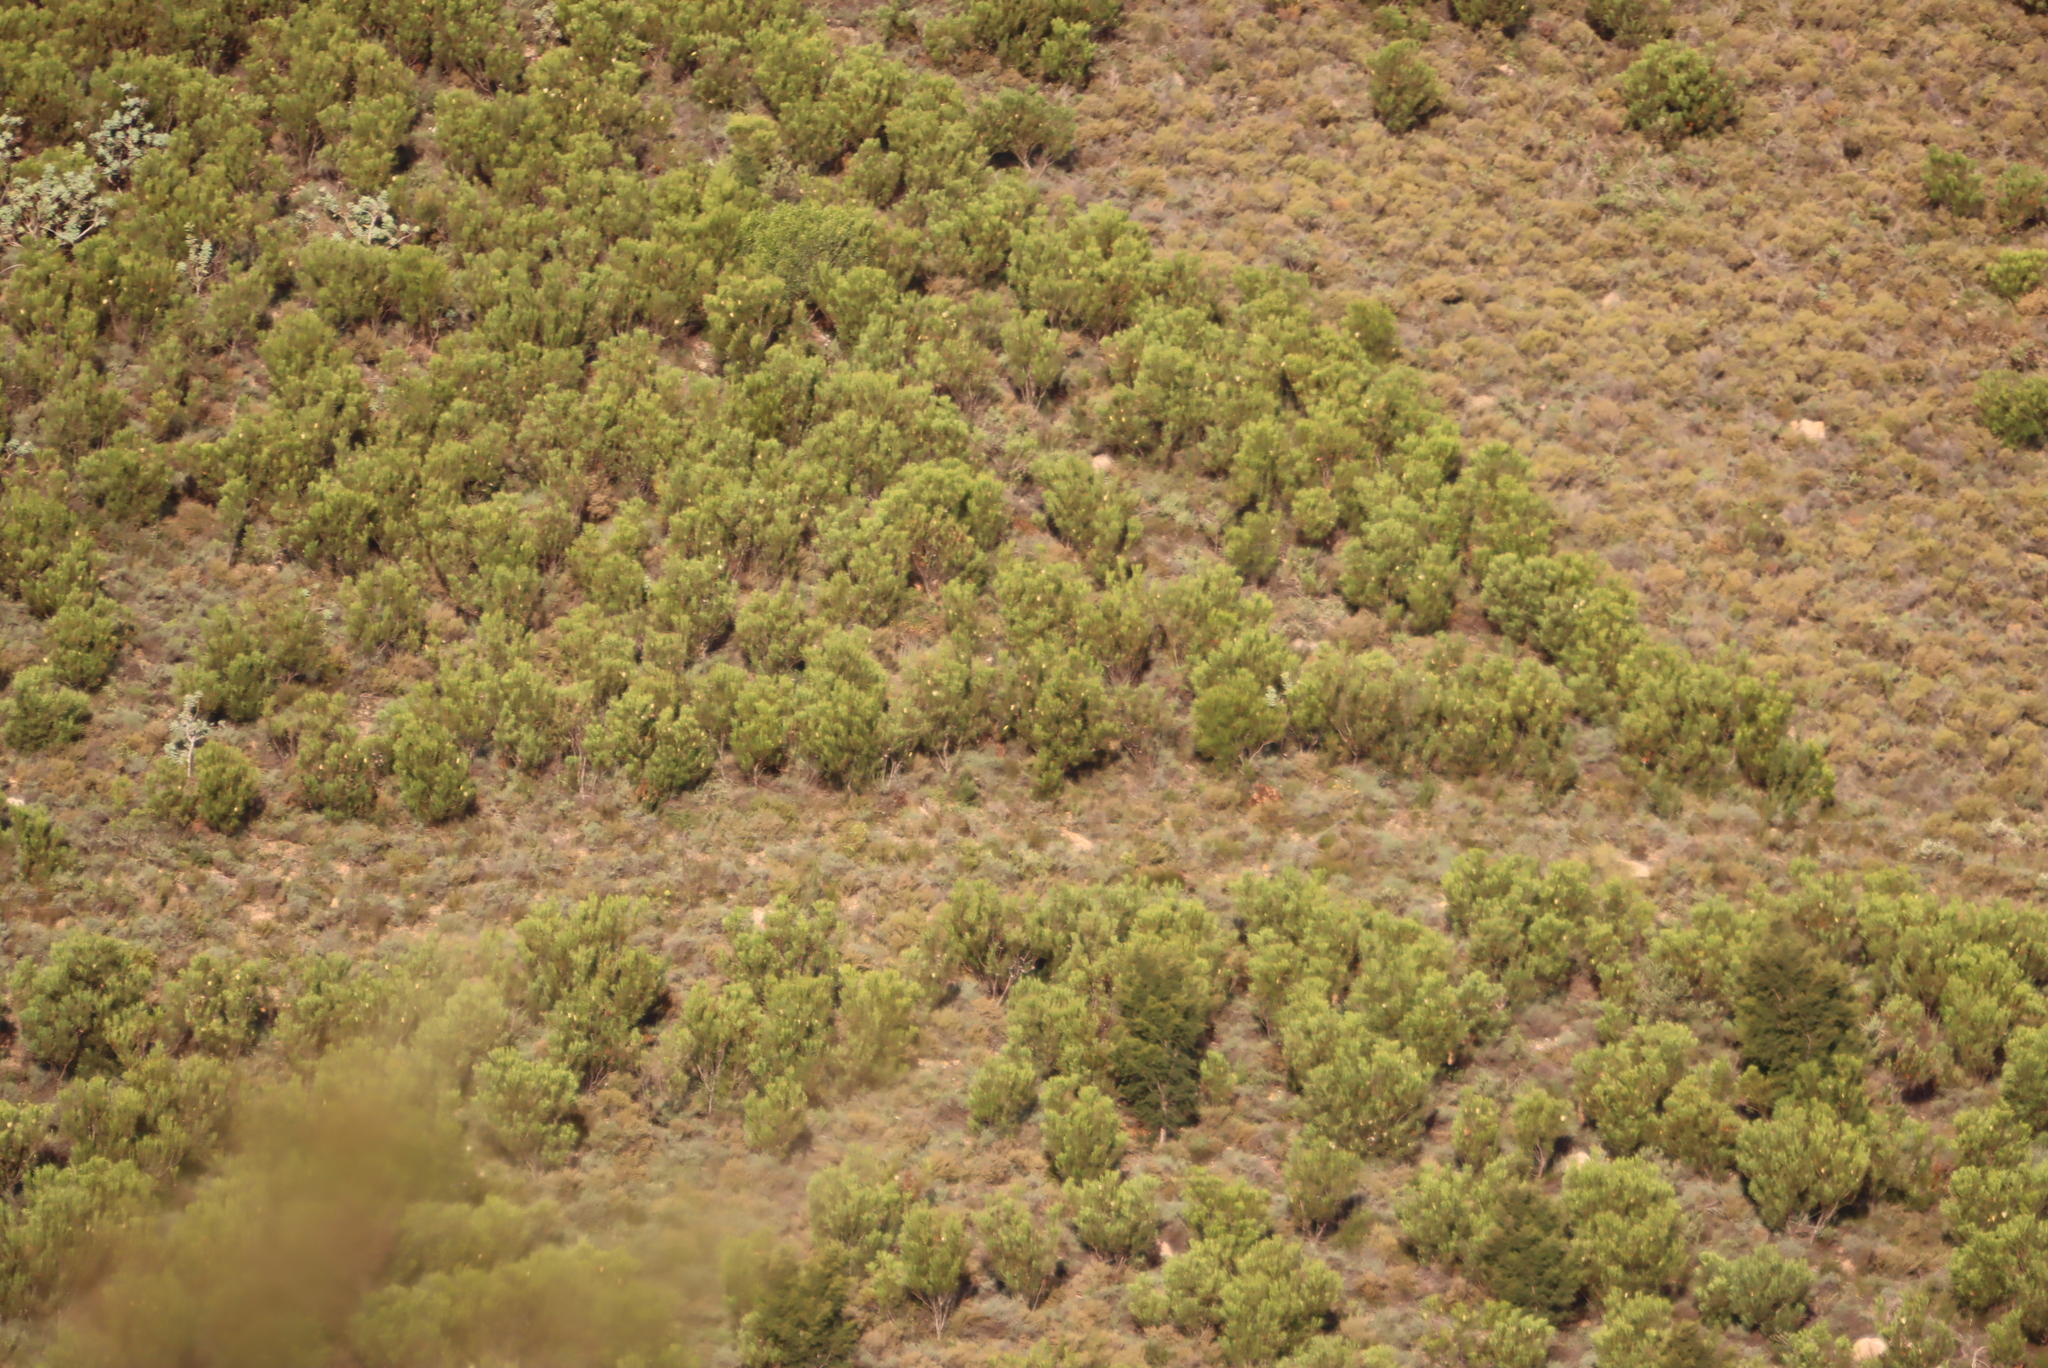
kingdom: Plantae
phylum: Tracheophyta
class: Magnoliopsida
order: Proteales
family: Proteaceae
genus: Protea
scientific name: Protea repens
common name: Sugarbush
